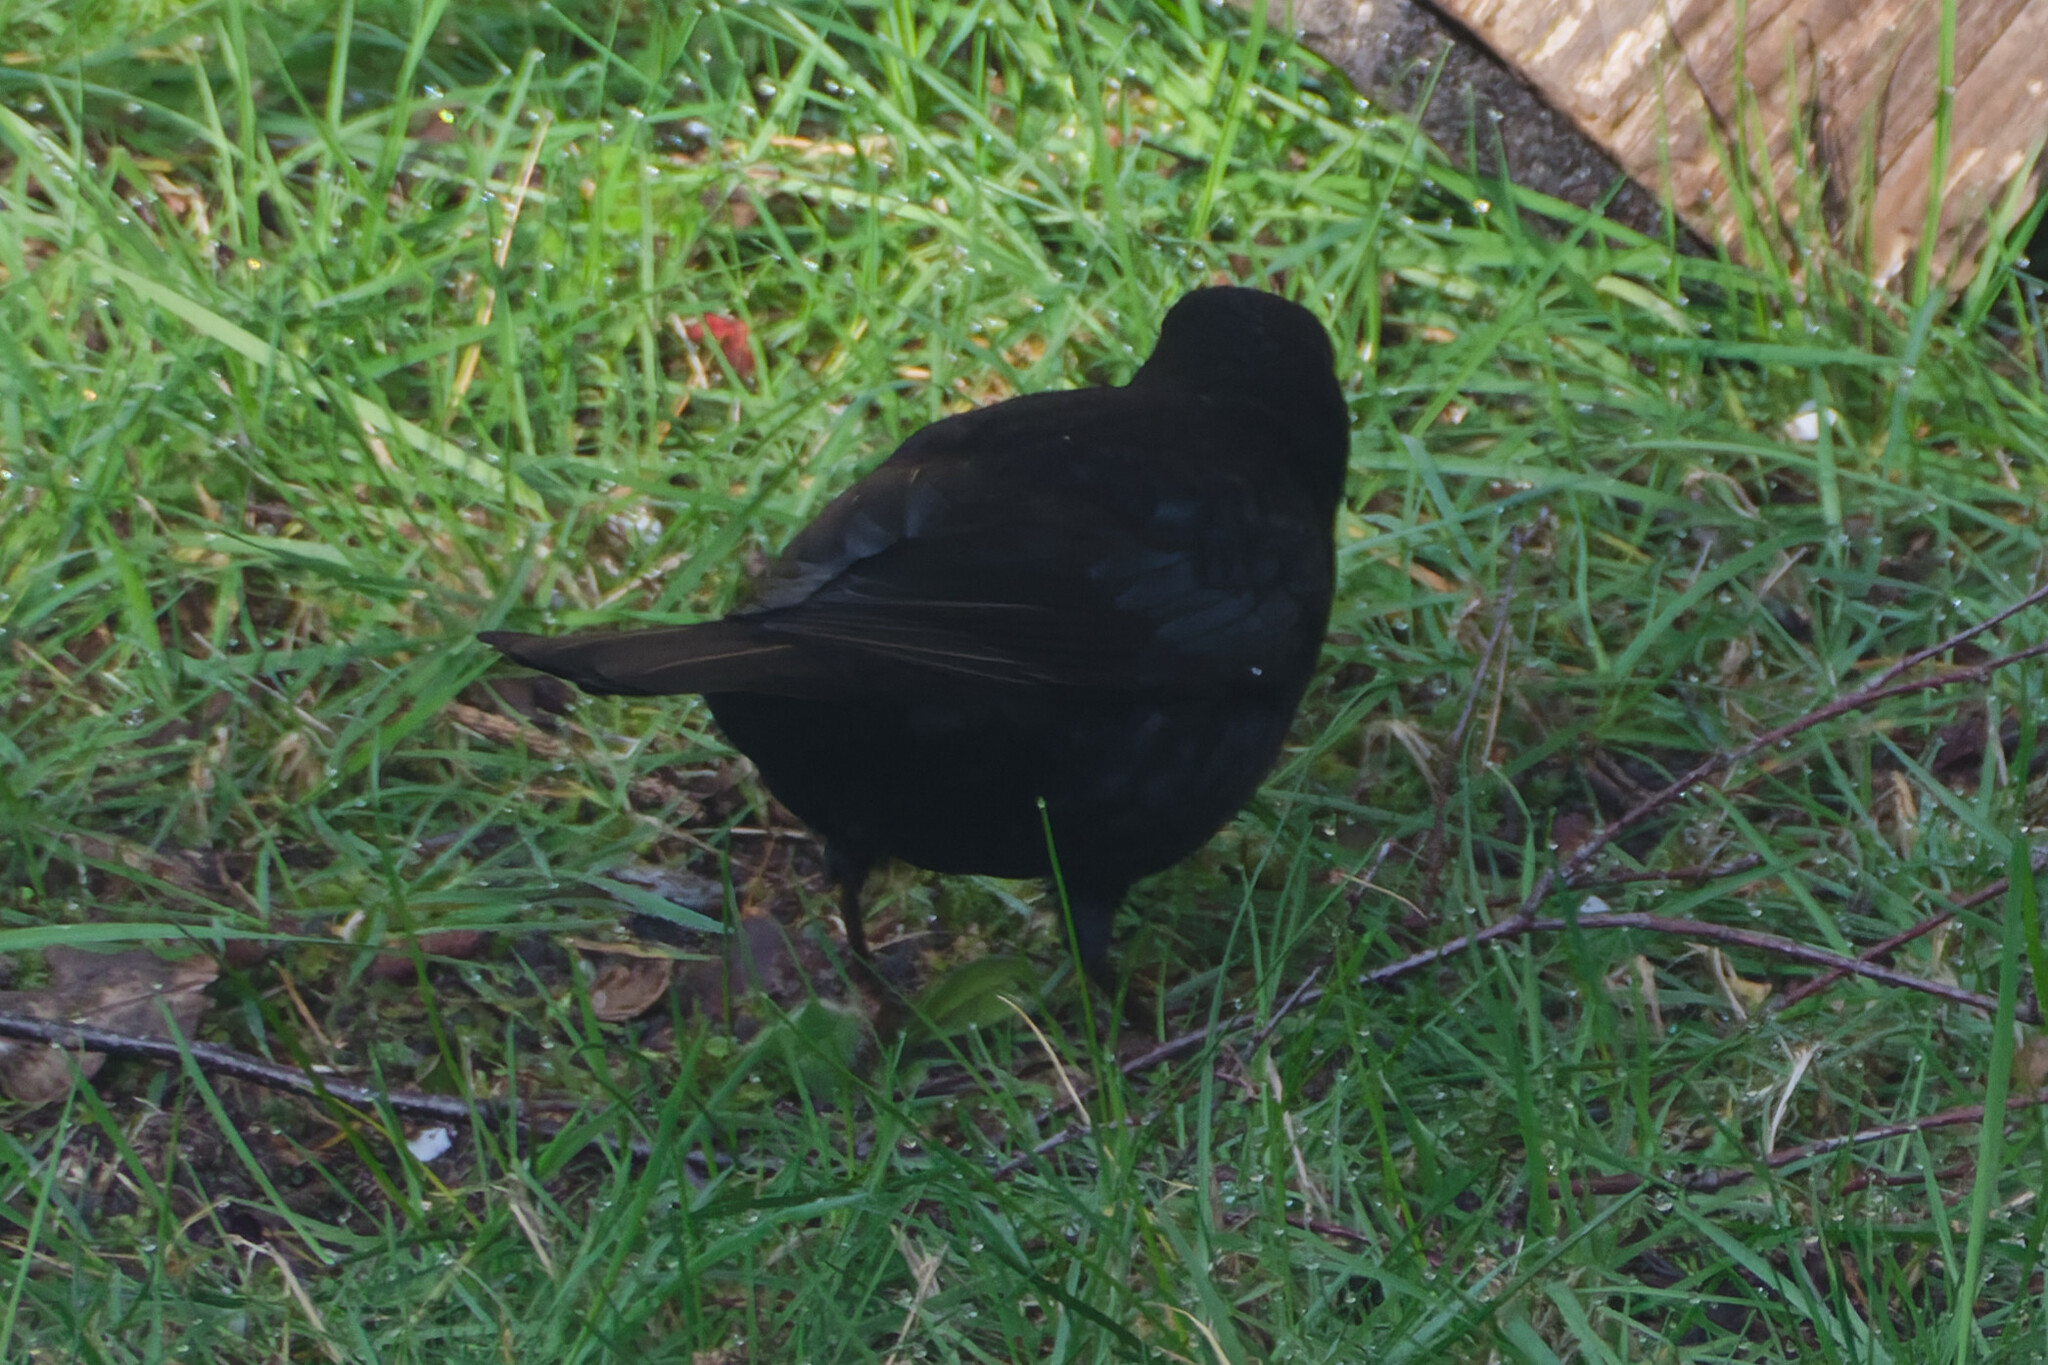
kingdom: Animalia
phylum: Chordata
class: Aves
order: Passeriformes
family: Turdidae
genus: Turdus
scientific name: Turdus merula
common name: Common blackbird
